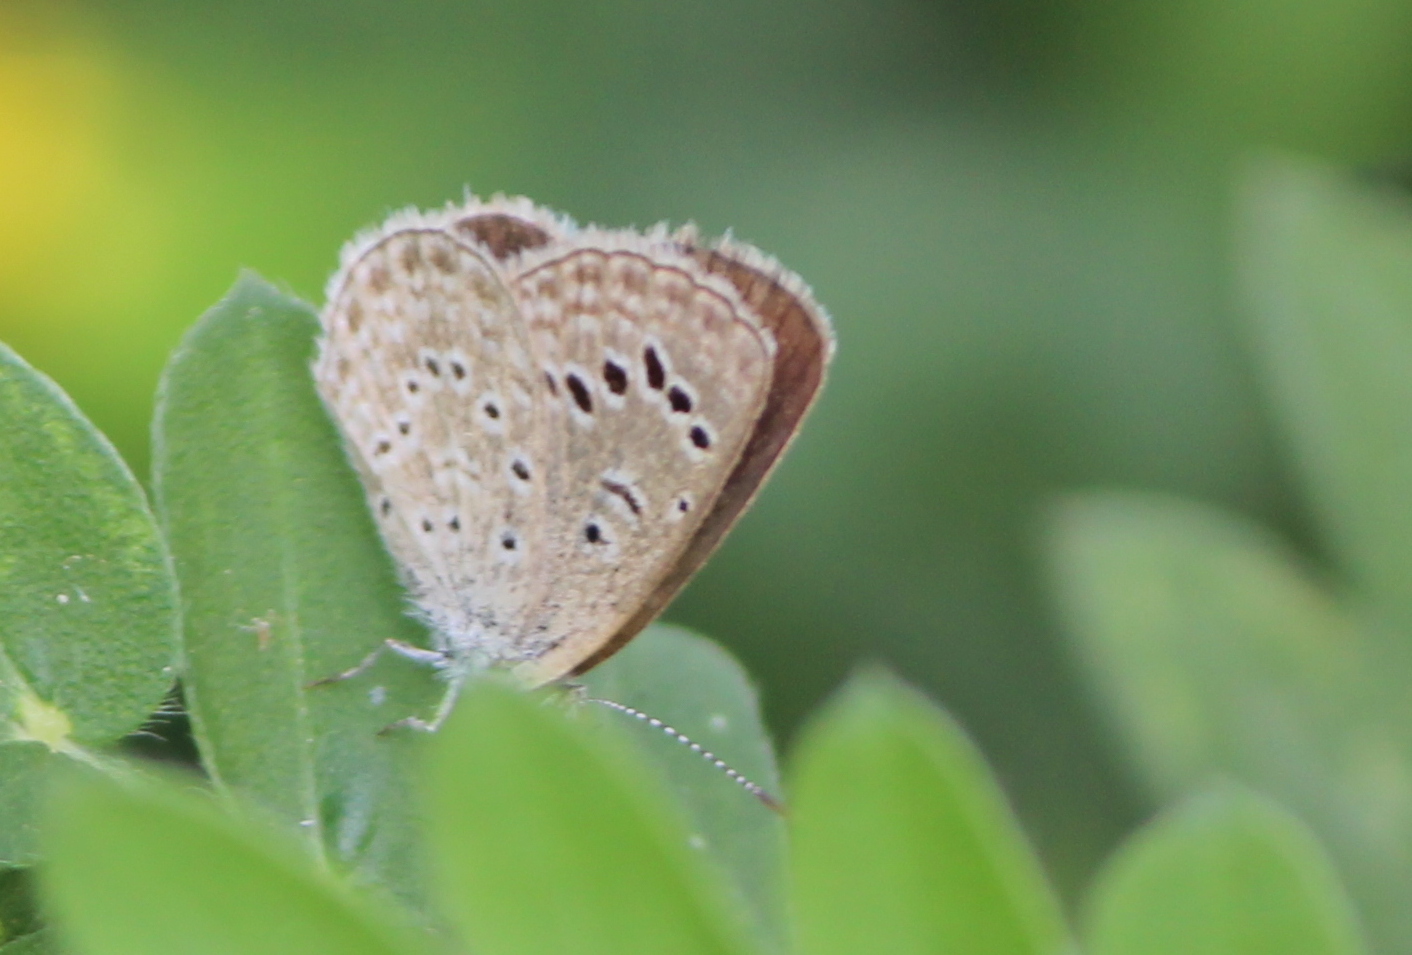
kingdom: Animalia
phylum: Arthropoda
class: Insecta
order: Lepidoptera
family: Lycaenidae
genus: Zizeeria
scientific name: Zizeeria karsandra
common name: Dark grass blue
